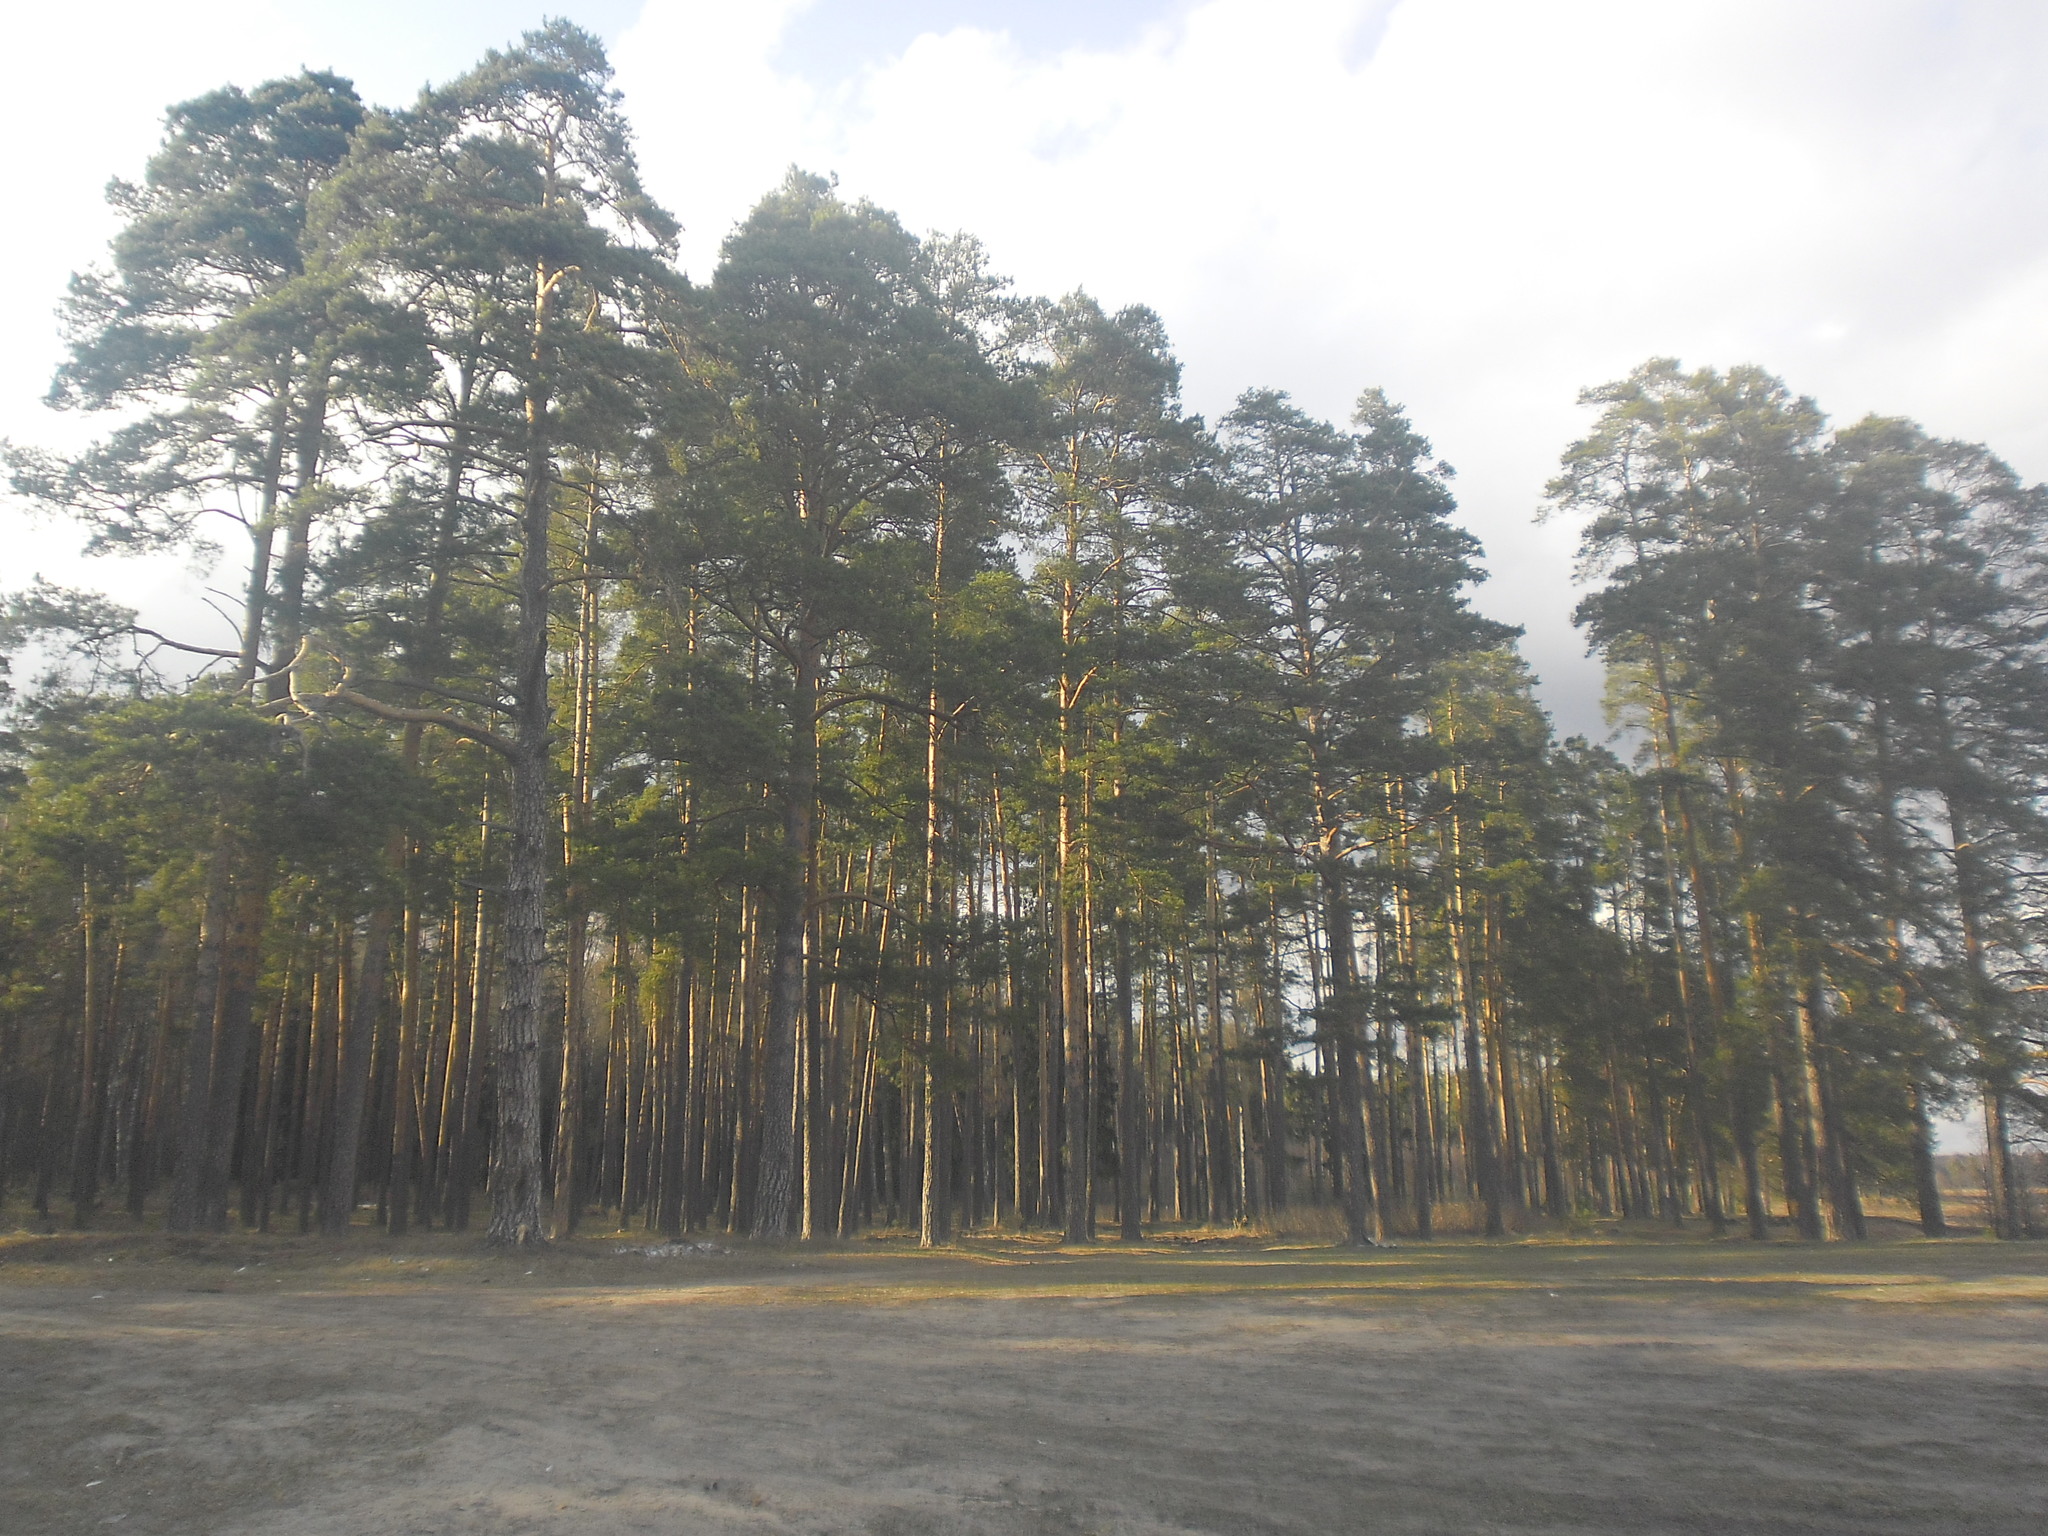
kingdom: Plantae
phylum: Tracheophyta
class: Pinopsida
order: Pinales
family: Pinaceae
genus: Pinus
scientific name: Pinus sylvestris
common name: Scots pine
